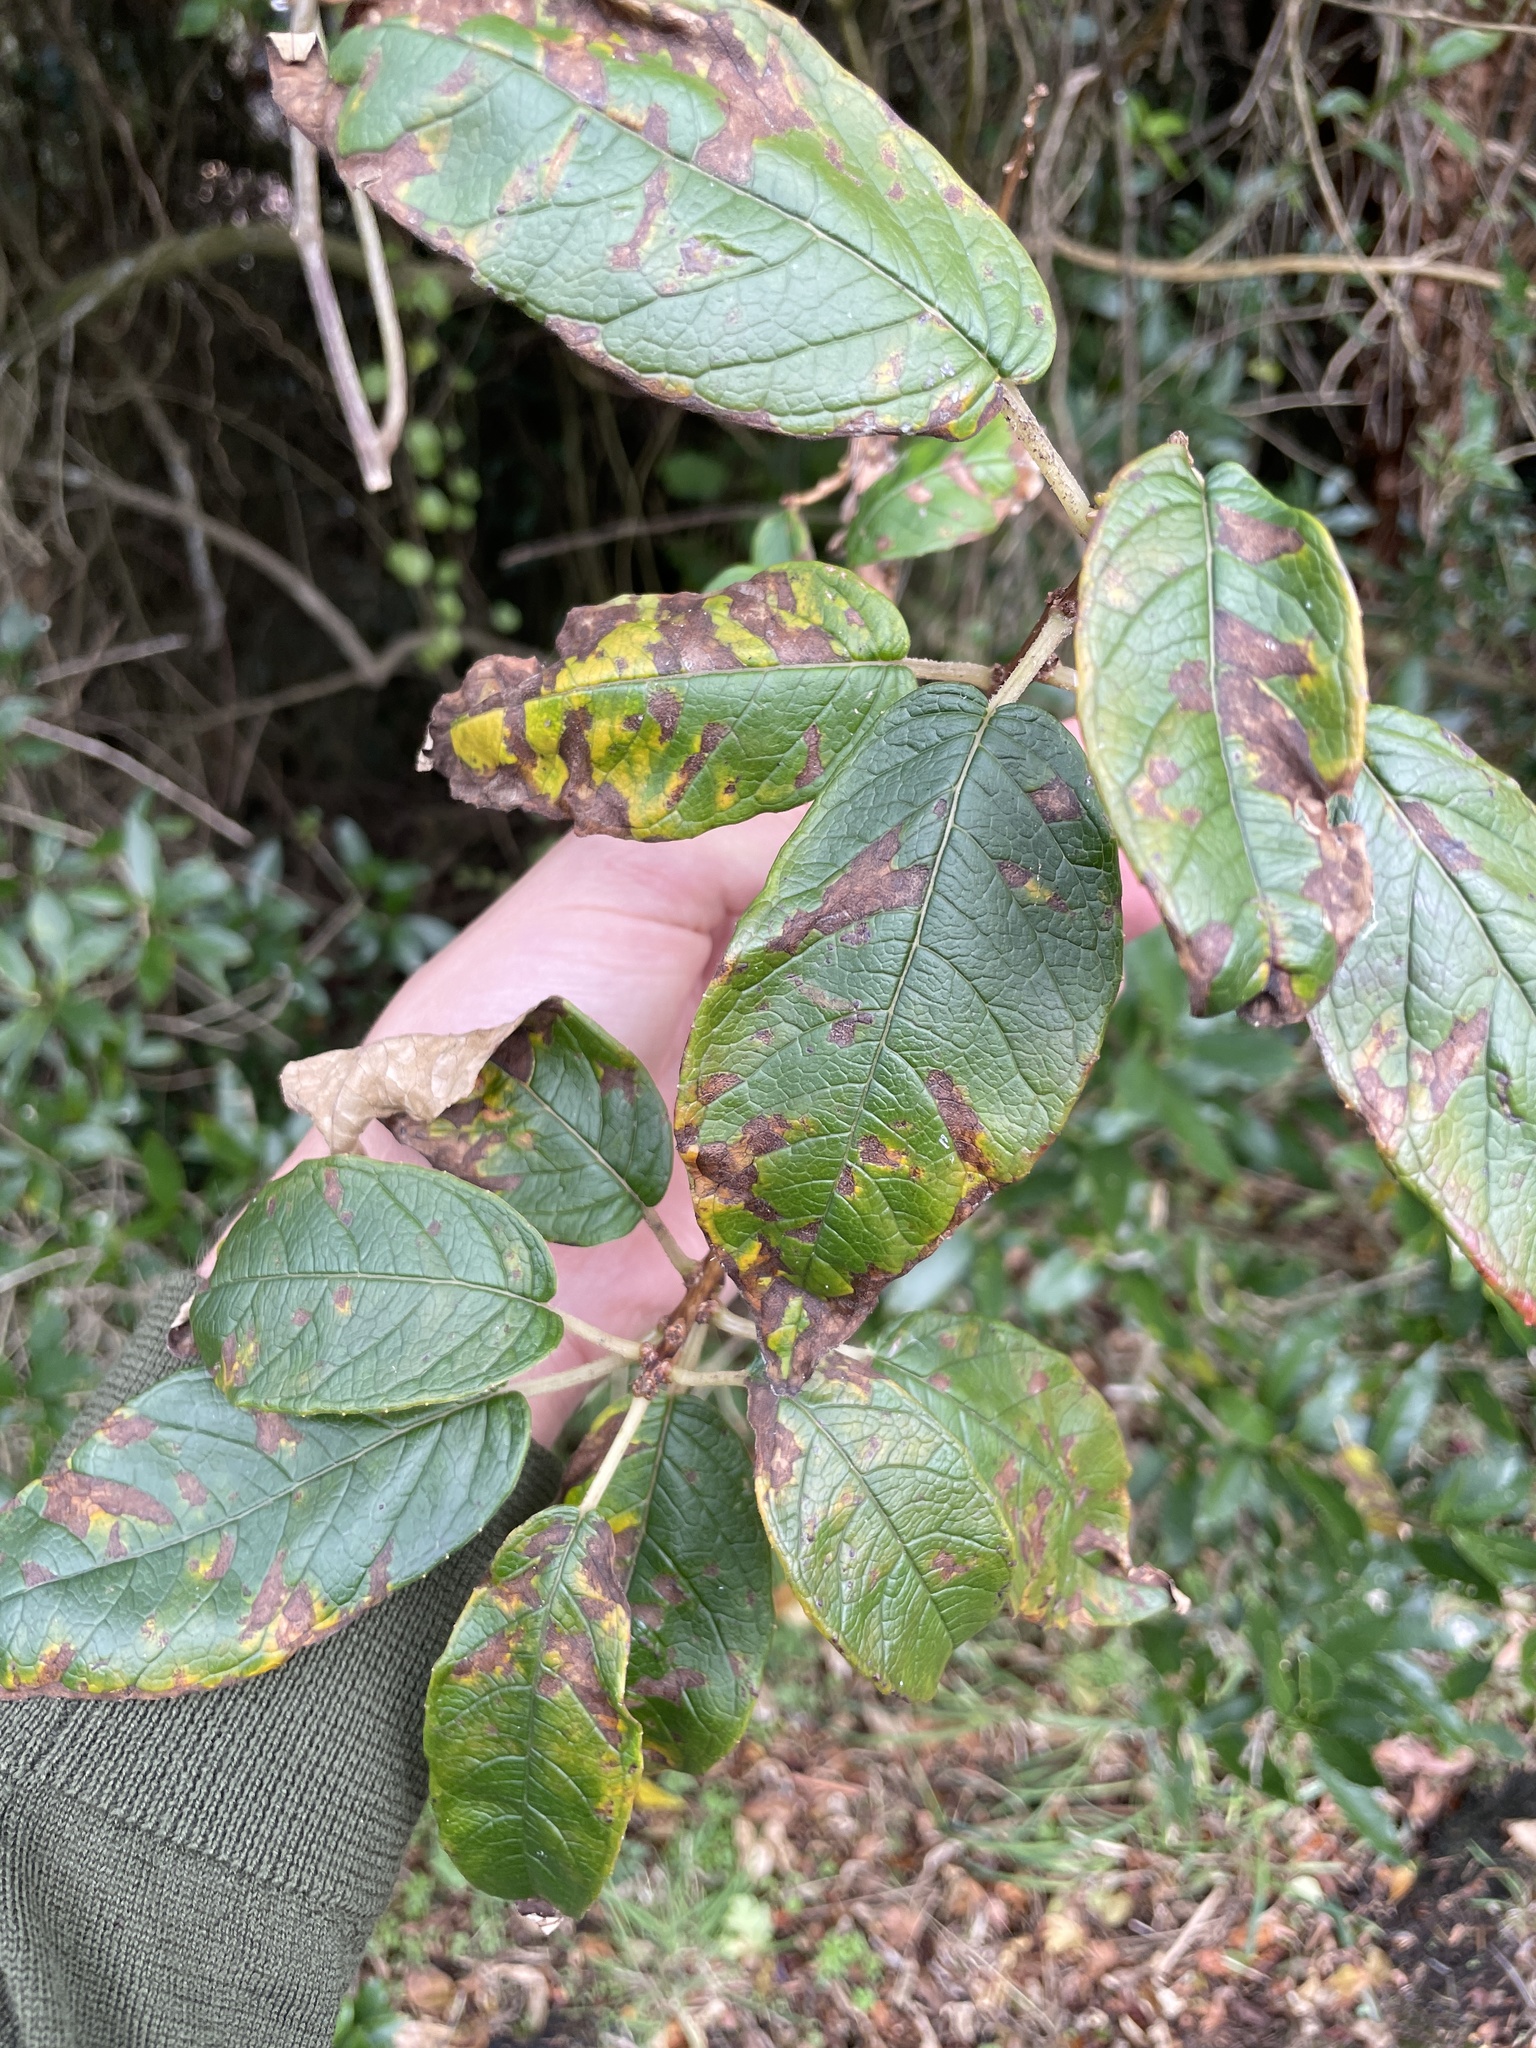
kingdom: Plantae
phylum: Tracheophyta
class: Magnoliopsida
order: Myrtales
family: Onagraceae
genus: Fuchsia
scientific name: Fuchsia excorticata
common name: Tree fuchsia
